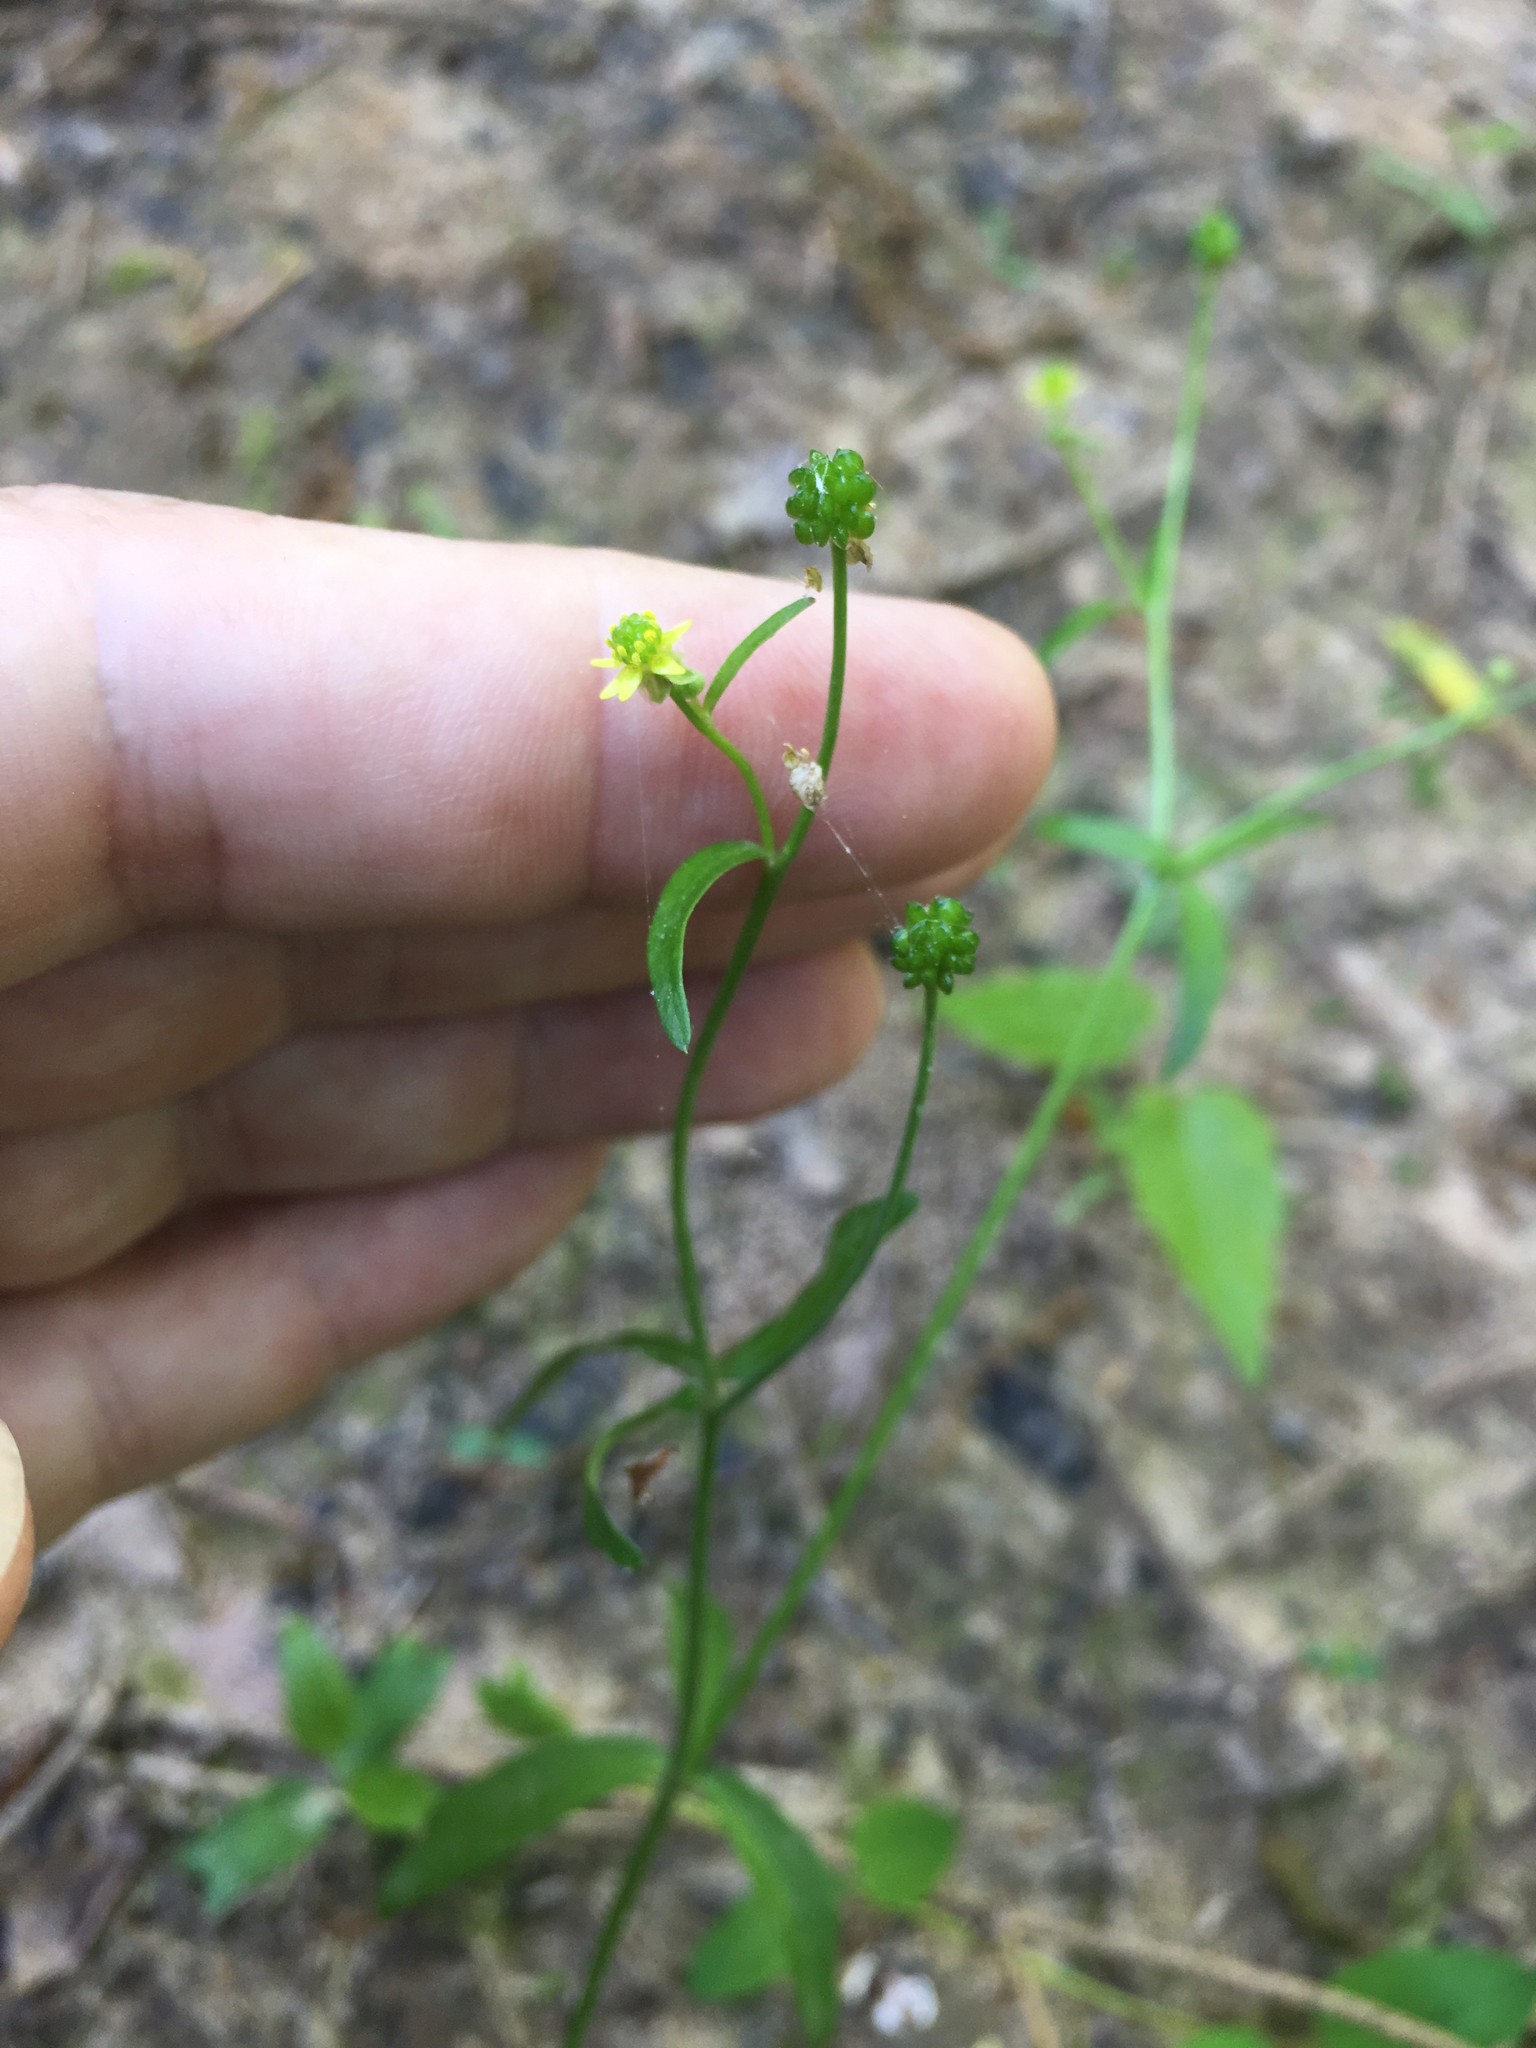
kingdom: Plantae
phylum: Tracheophyta
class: Magnoliopsida
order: Ranunculales
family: Ranunculaceae
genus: Ranunculus
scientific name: Ranunculus abortivus
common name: Early wood buttercup
